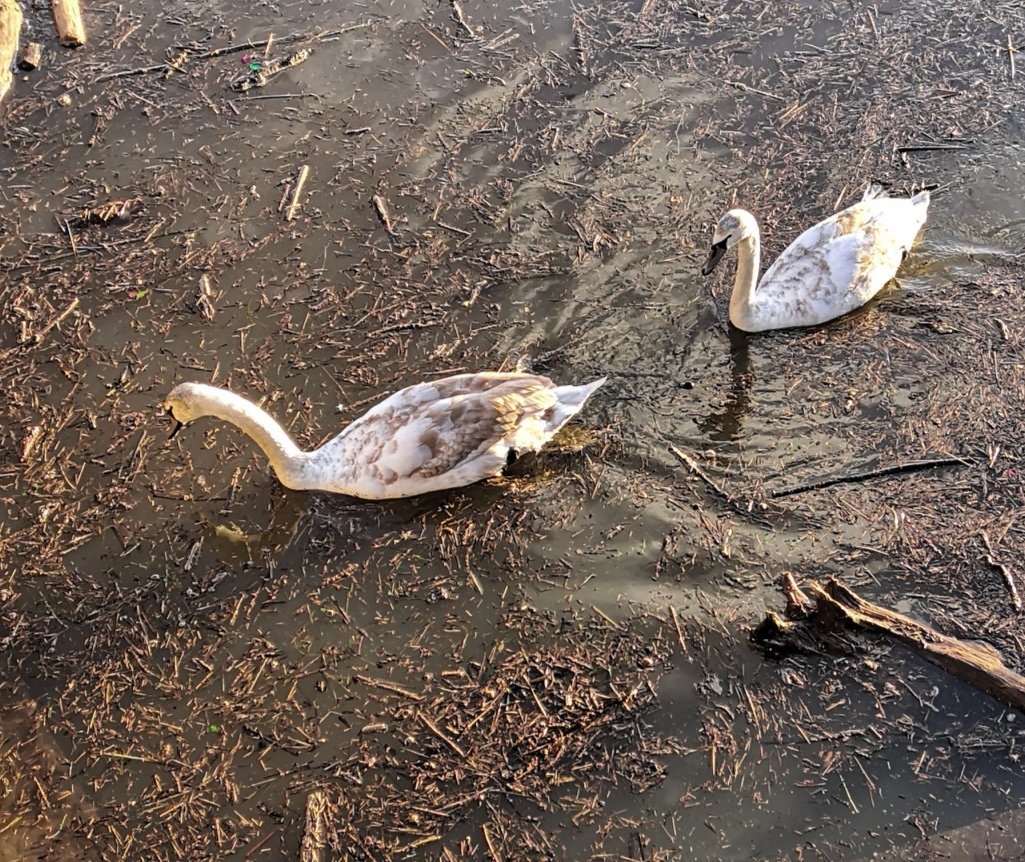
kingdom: Animalia
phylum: Chordata
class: Aves
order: Anseriformes
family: Anatidae
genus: Cygnus
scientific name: Cygnus olor
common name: Mute swan
